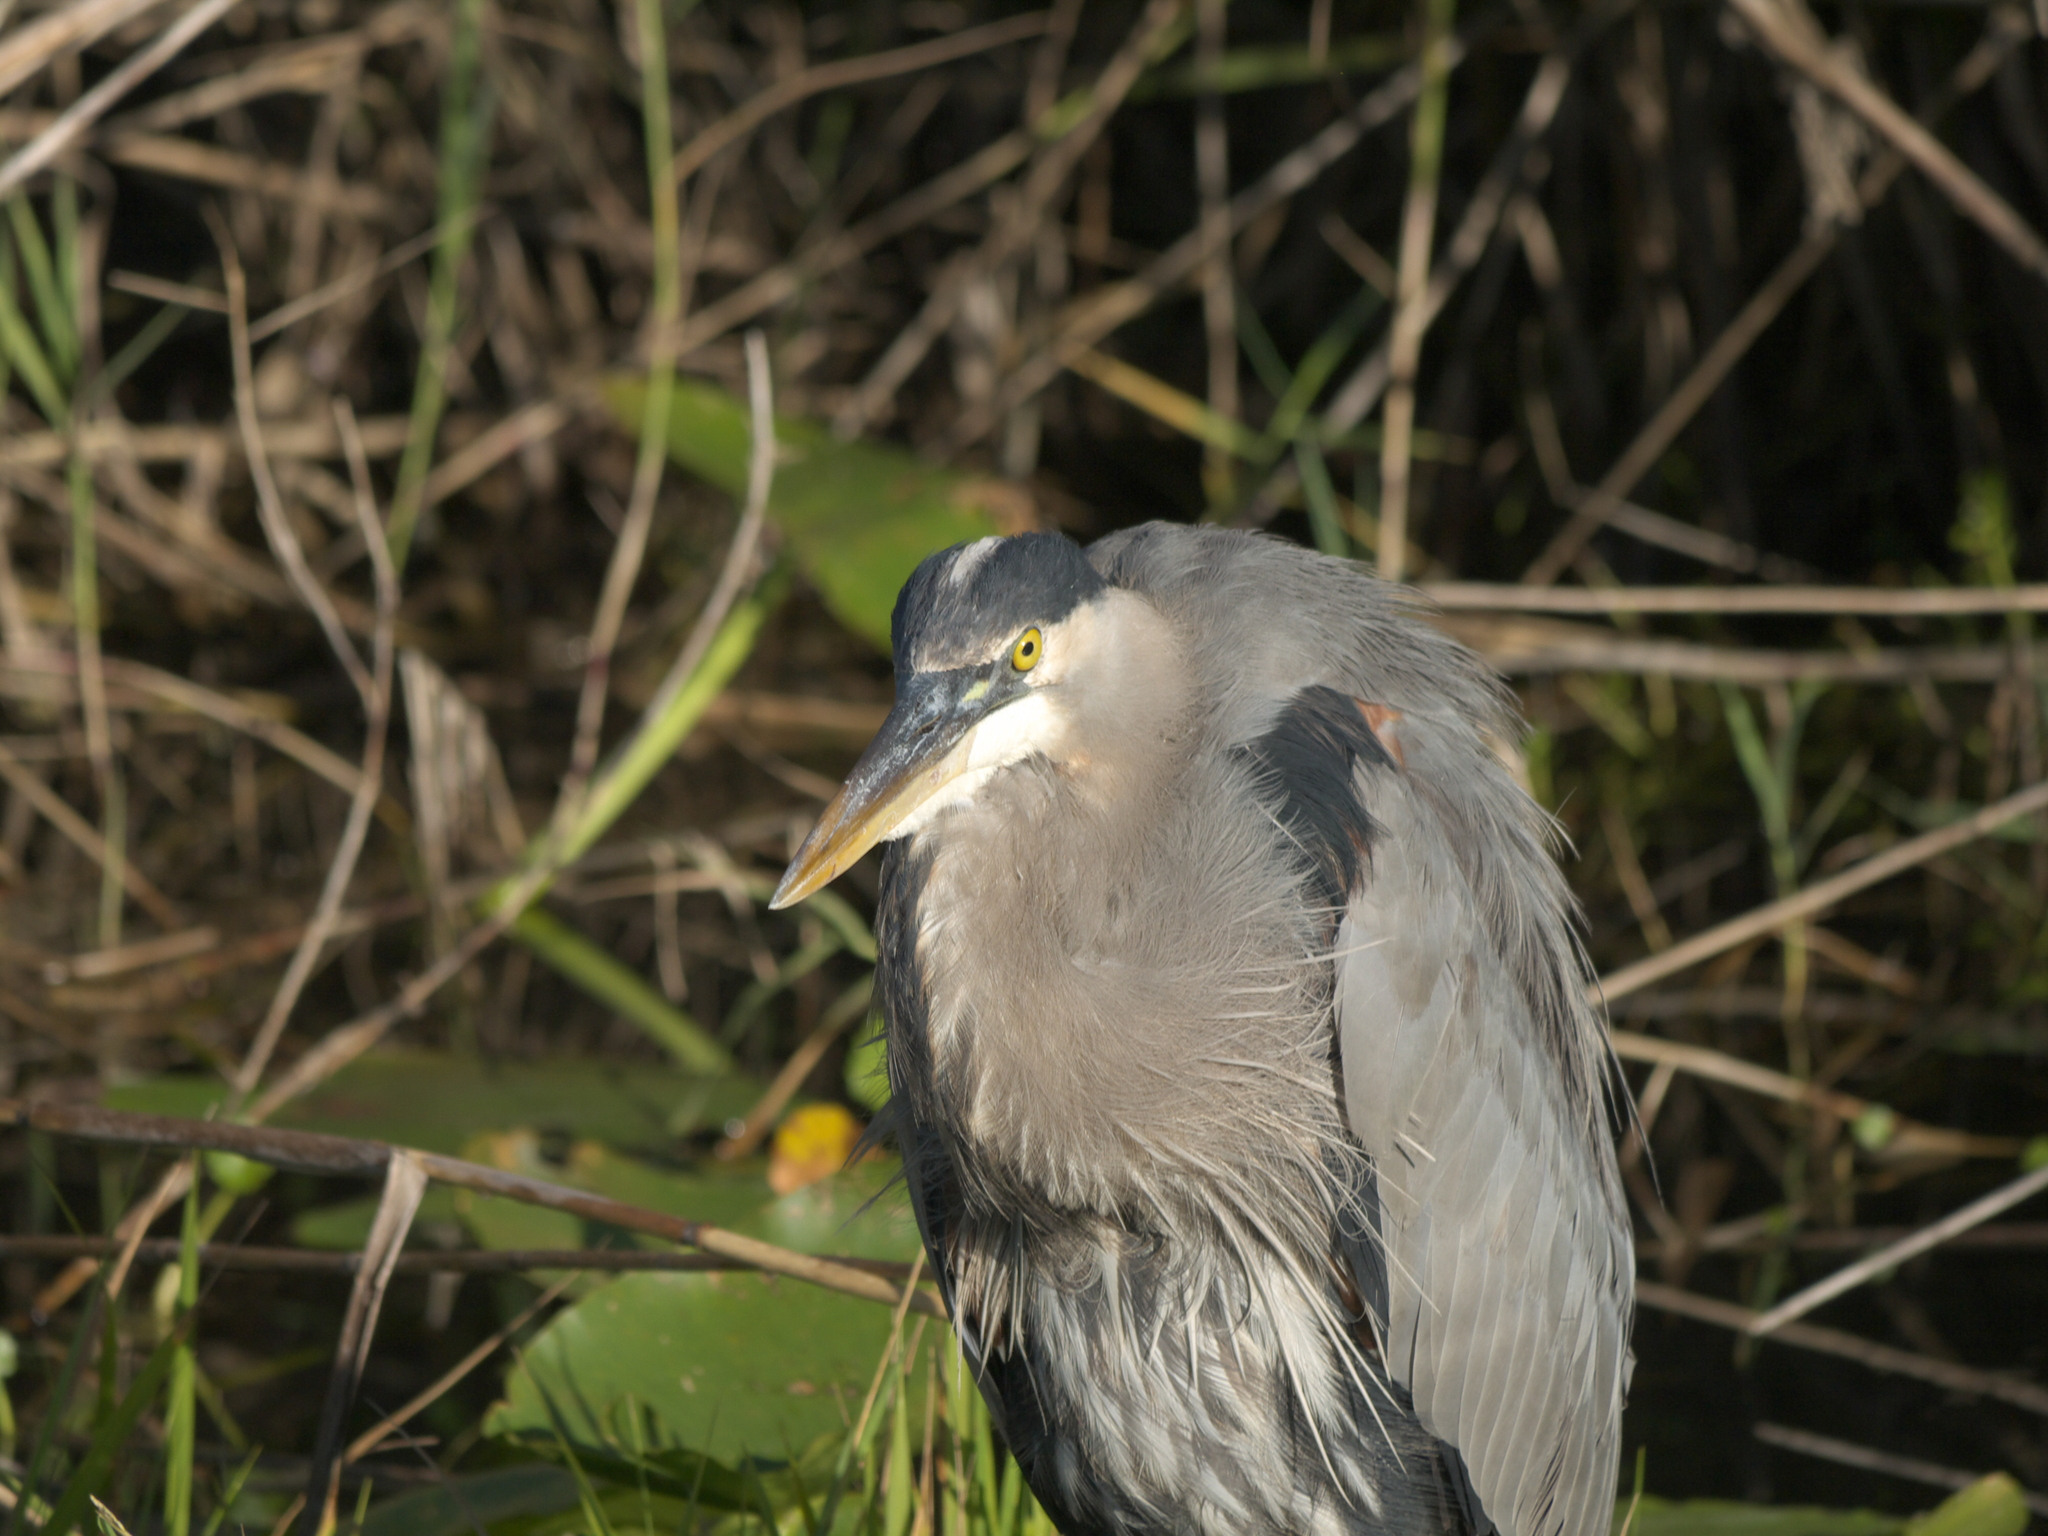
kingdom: Animalia
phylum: Chordata
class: Aves
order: Pelecaniformes
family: Ardeidae
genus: Ardea
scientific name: Ardea herodias
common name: Great blue heron
